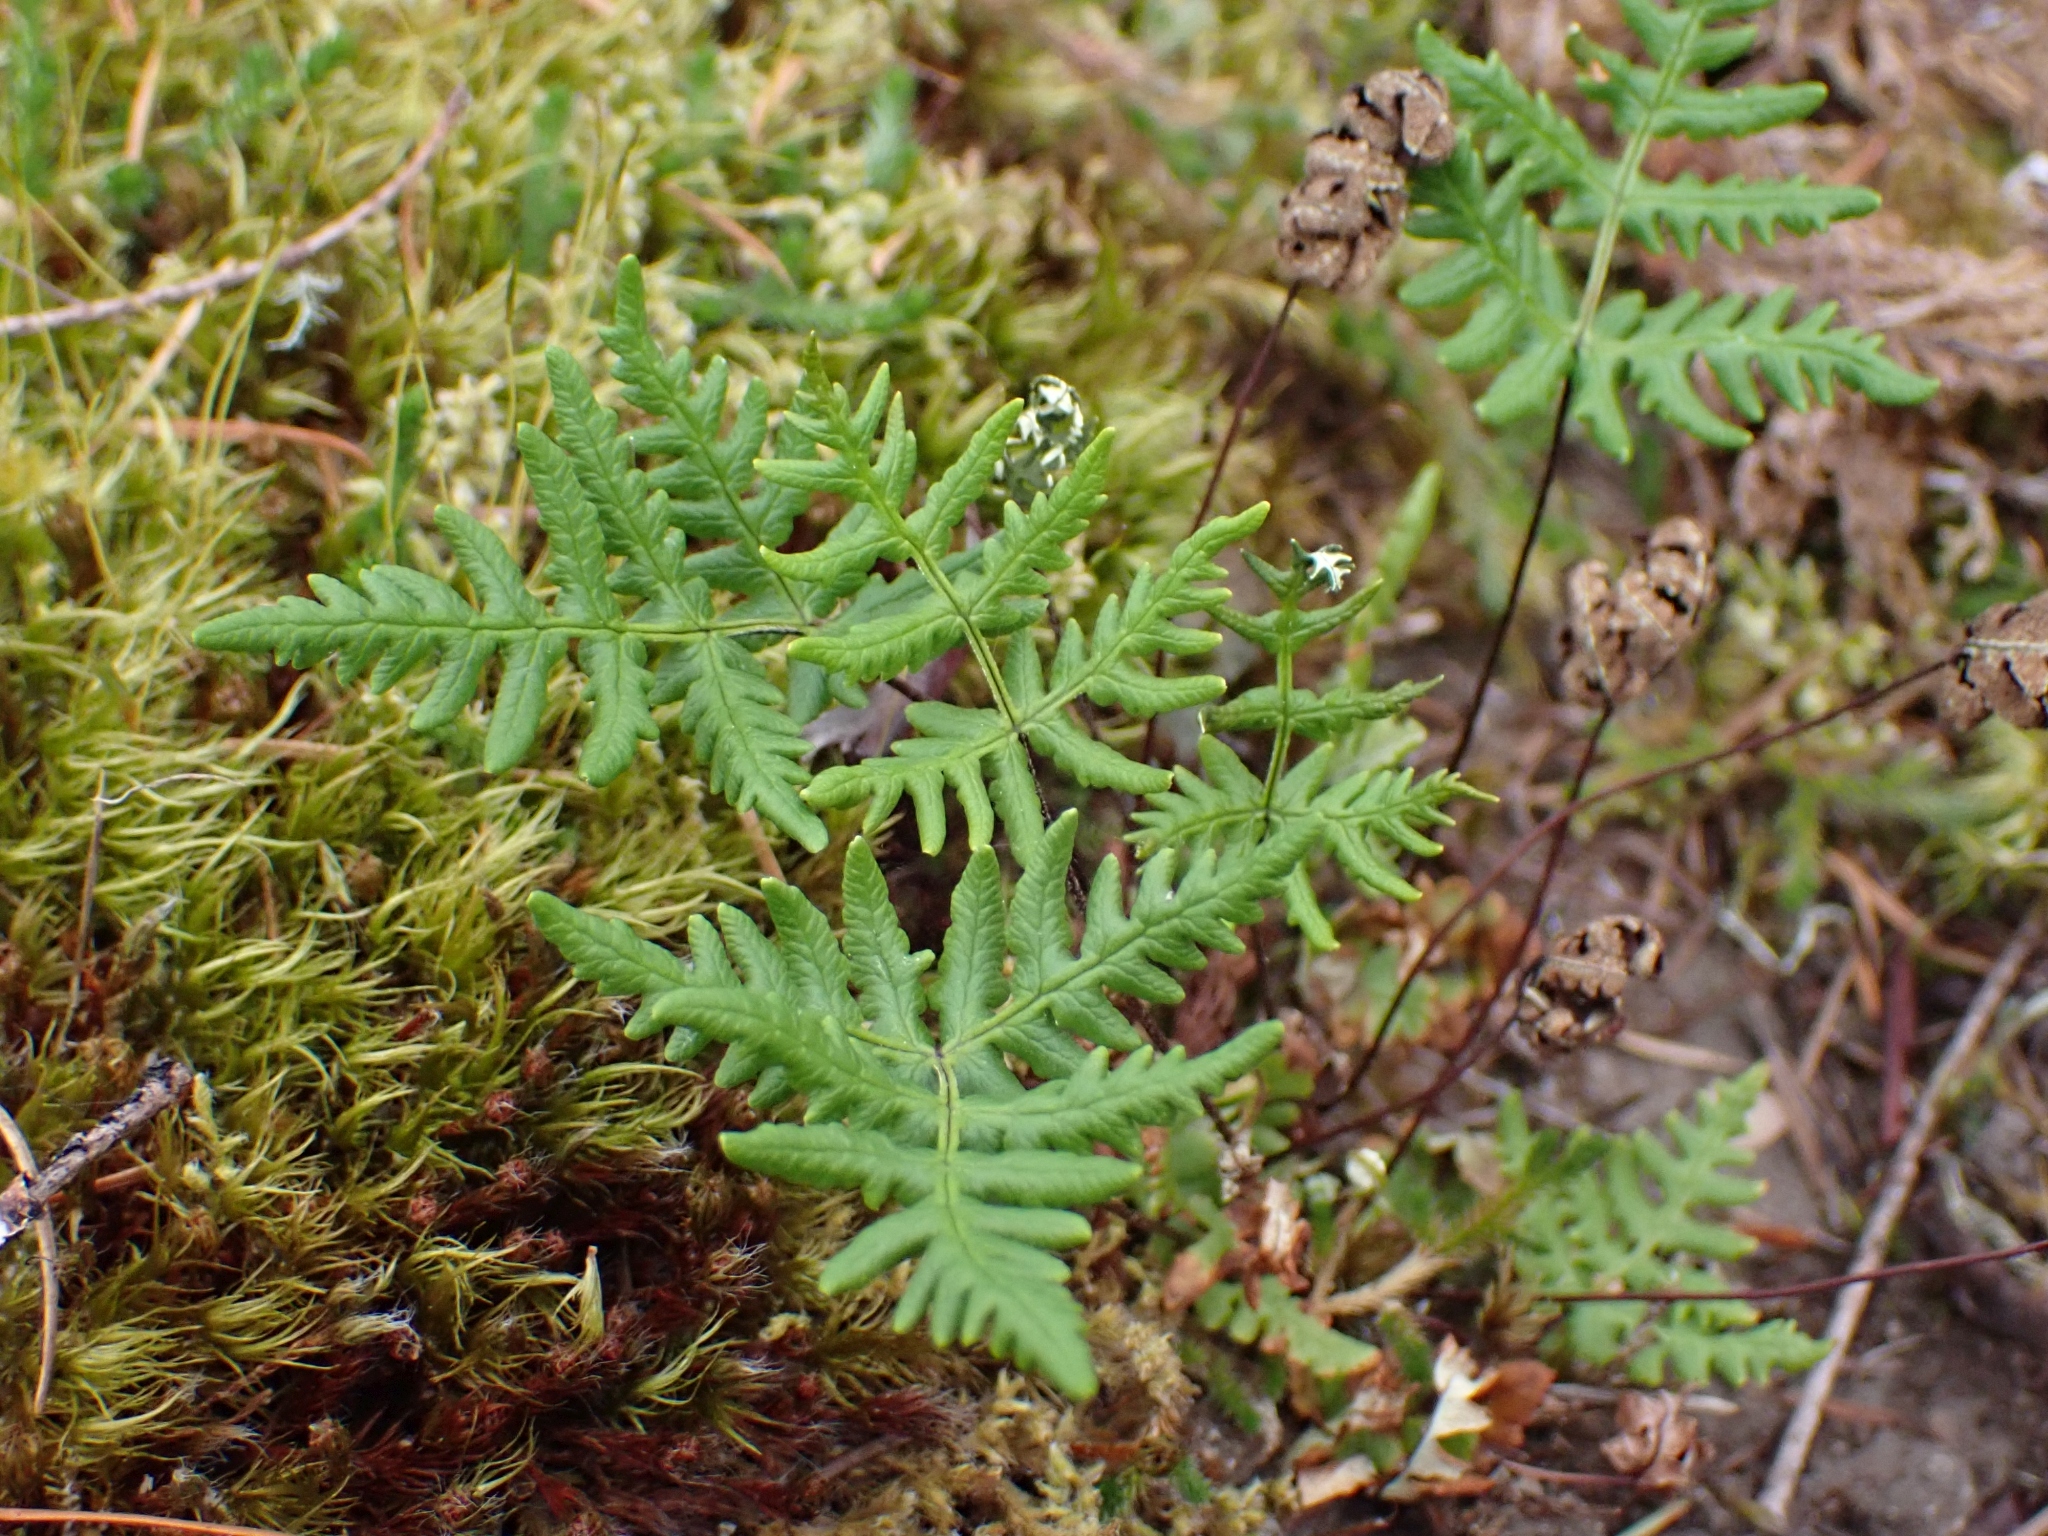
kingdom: Plantae
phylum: Tracheophyta
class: Polypodiopsida
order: Polypodiales
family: Pteridaceae
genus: Pentagramma
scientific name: Pentagramma triangularis
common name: Gold fern
